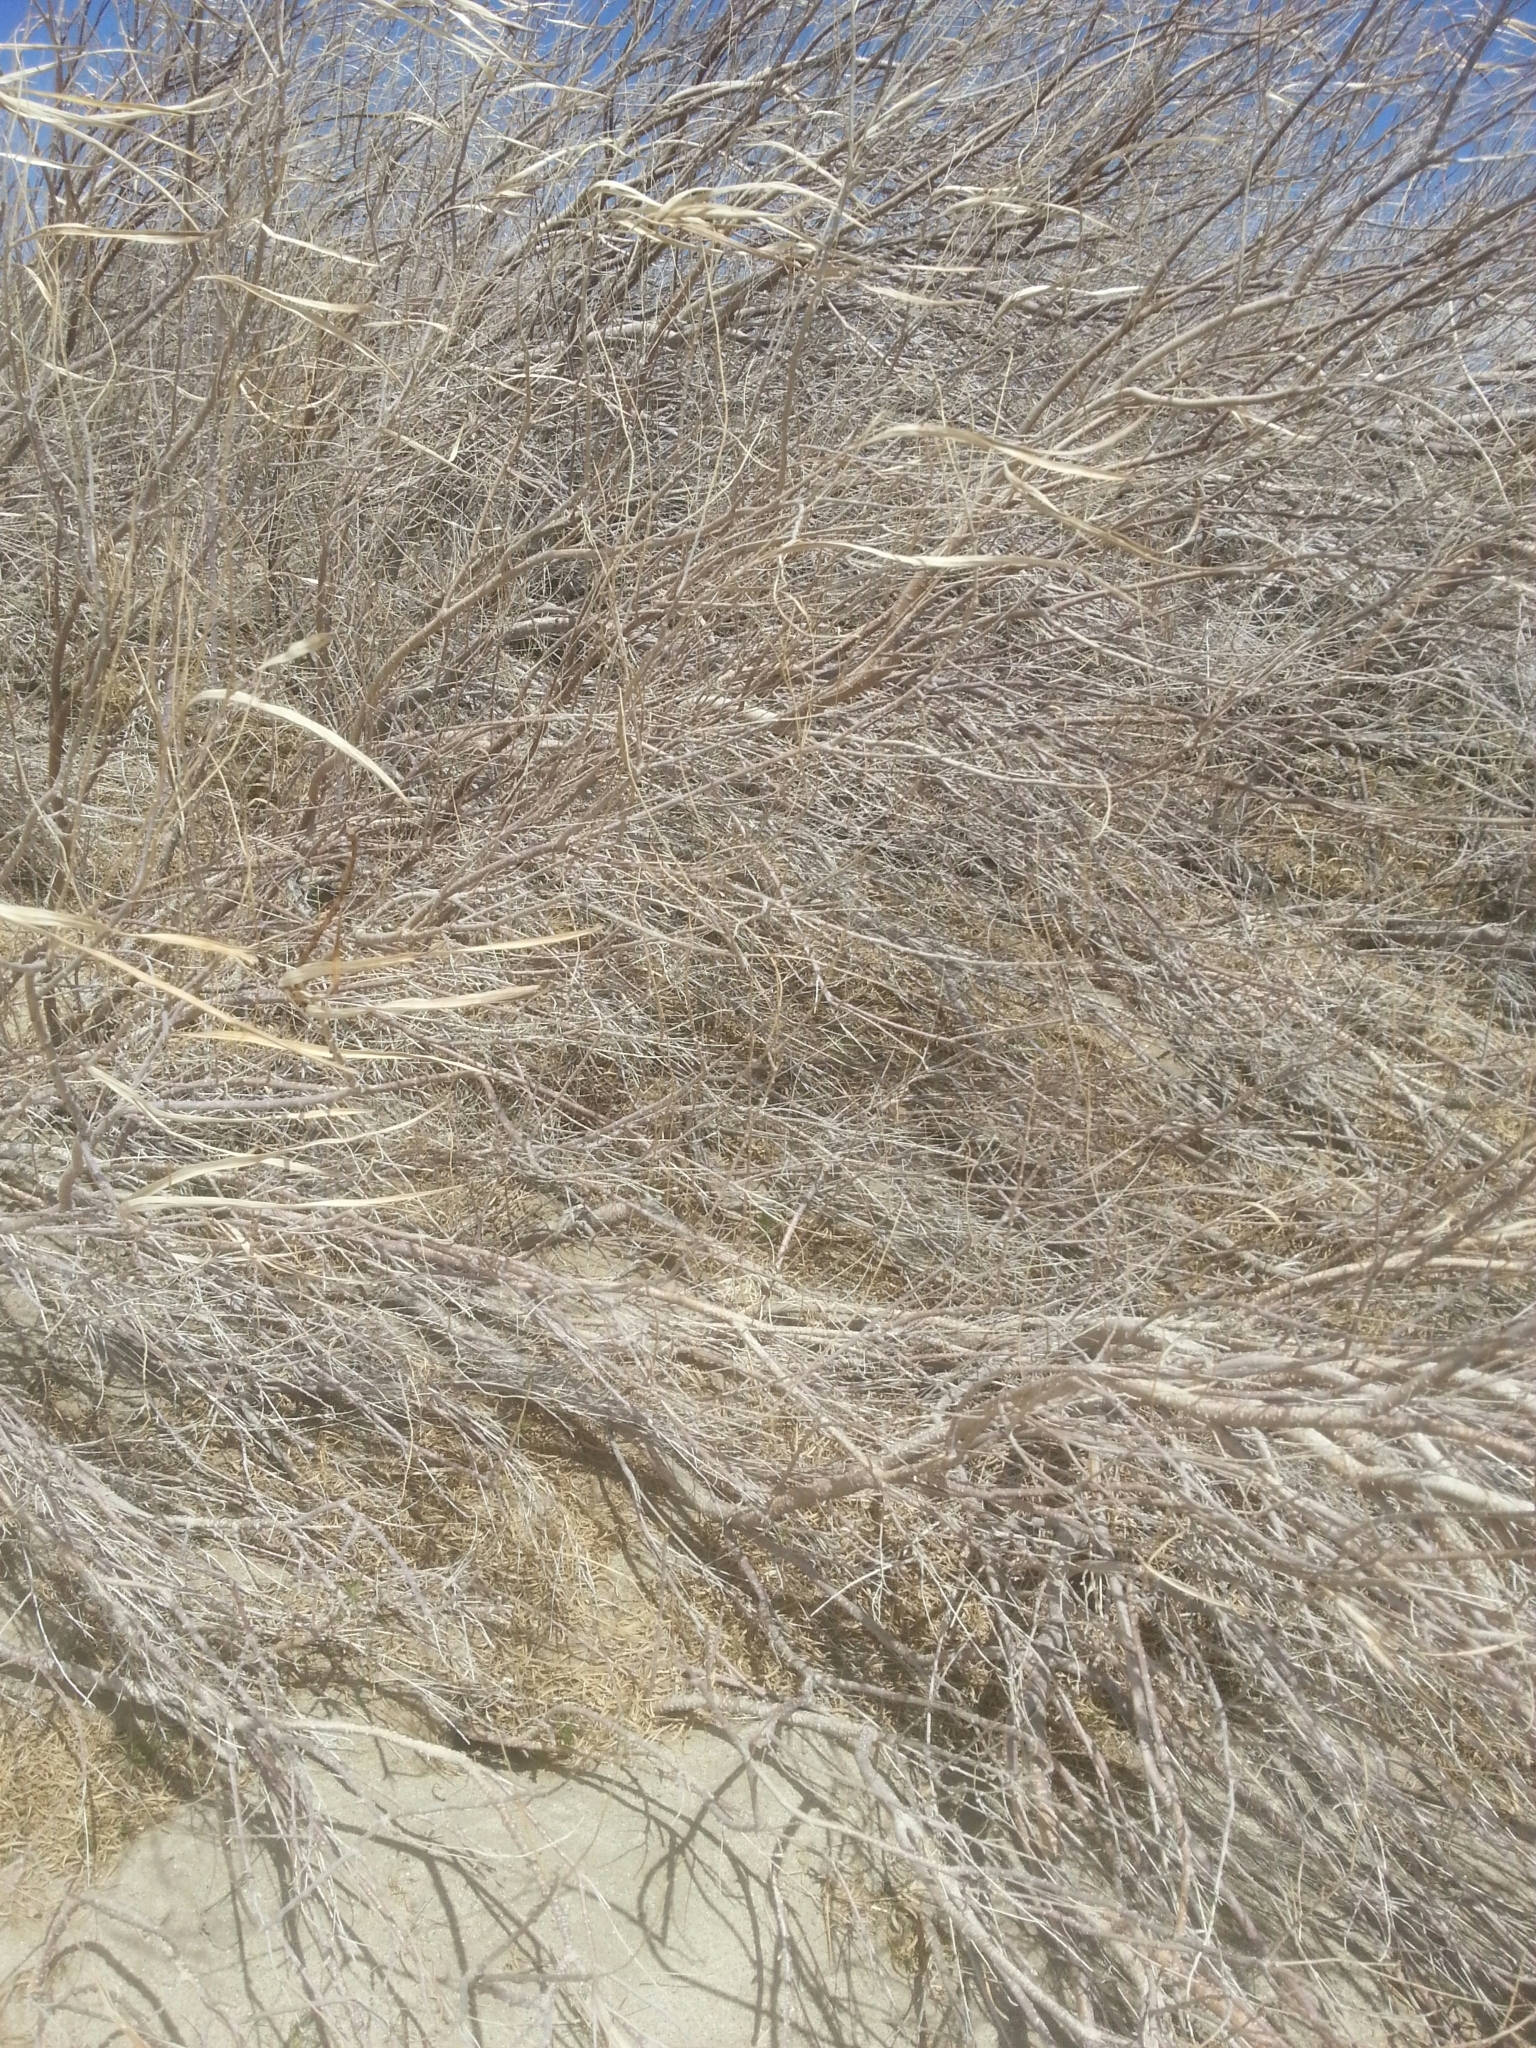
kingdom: Plantae
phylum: Tracheophyta
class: Magnoliopsida
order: Lamiales
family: Bignoniaceae
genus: Chilopsis
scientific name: Chilopsis linearis
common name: Desert-willow
